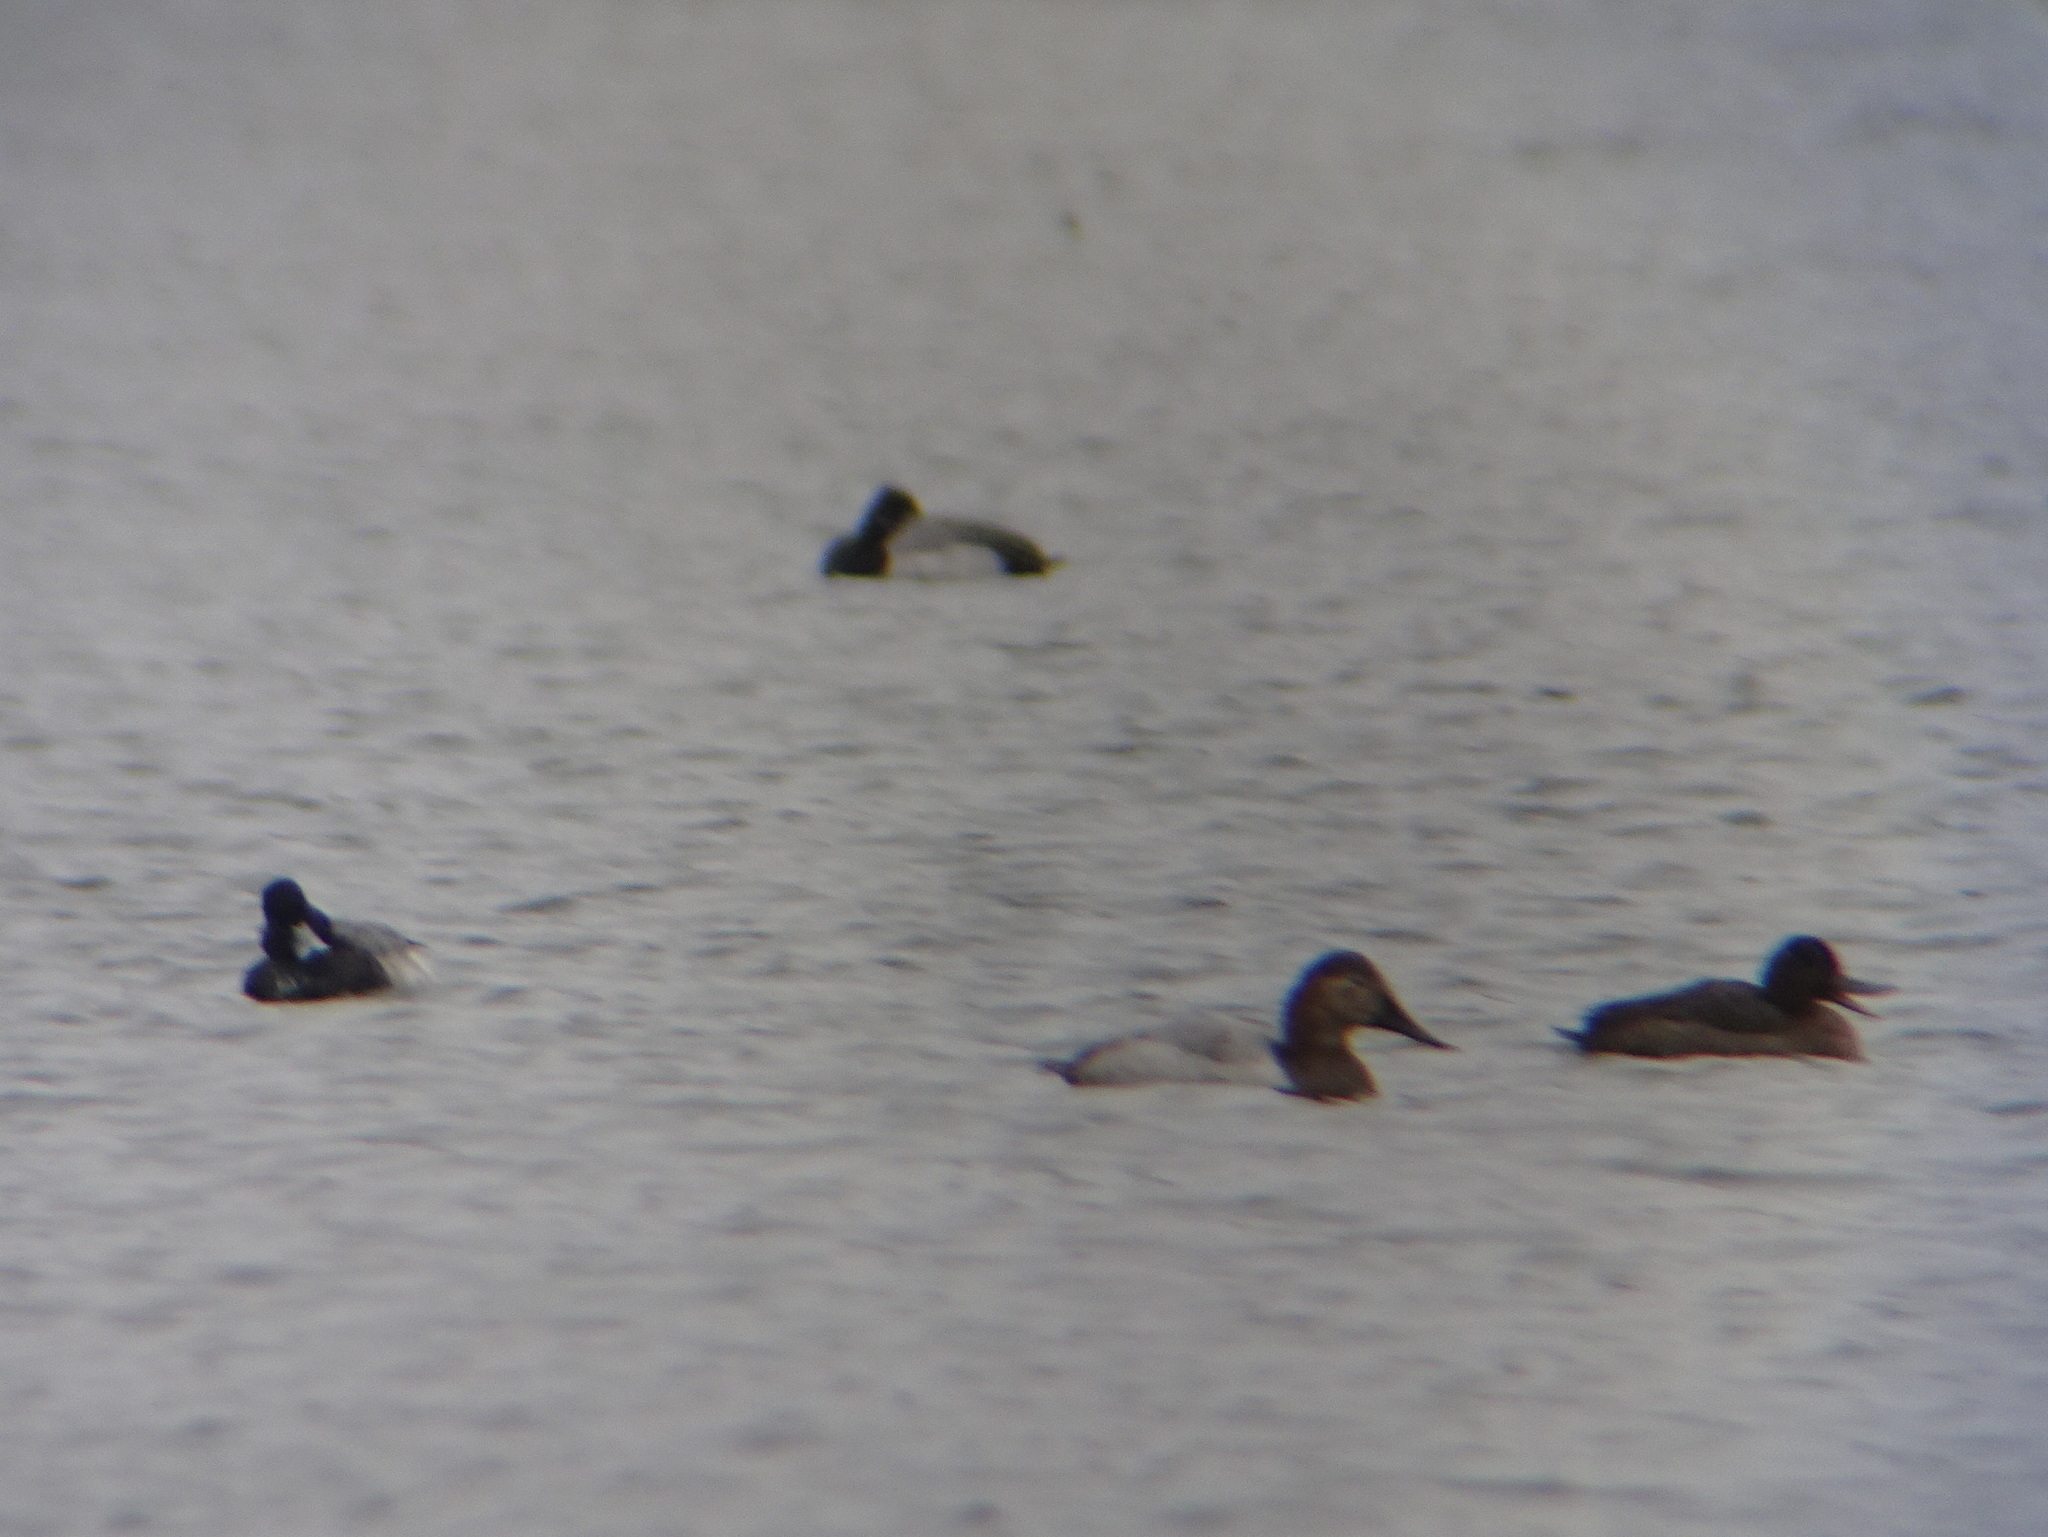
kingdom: Animalia
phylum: Chordata
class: Aves
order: Anseriformes
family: Anatidae
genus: Aythya
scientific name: Aythya valisineria
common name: Canvasback
